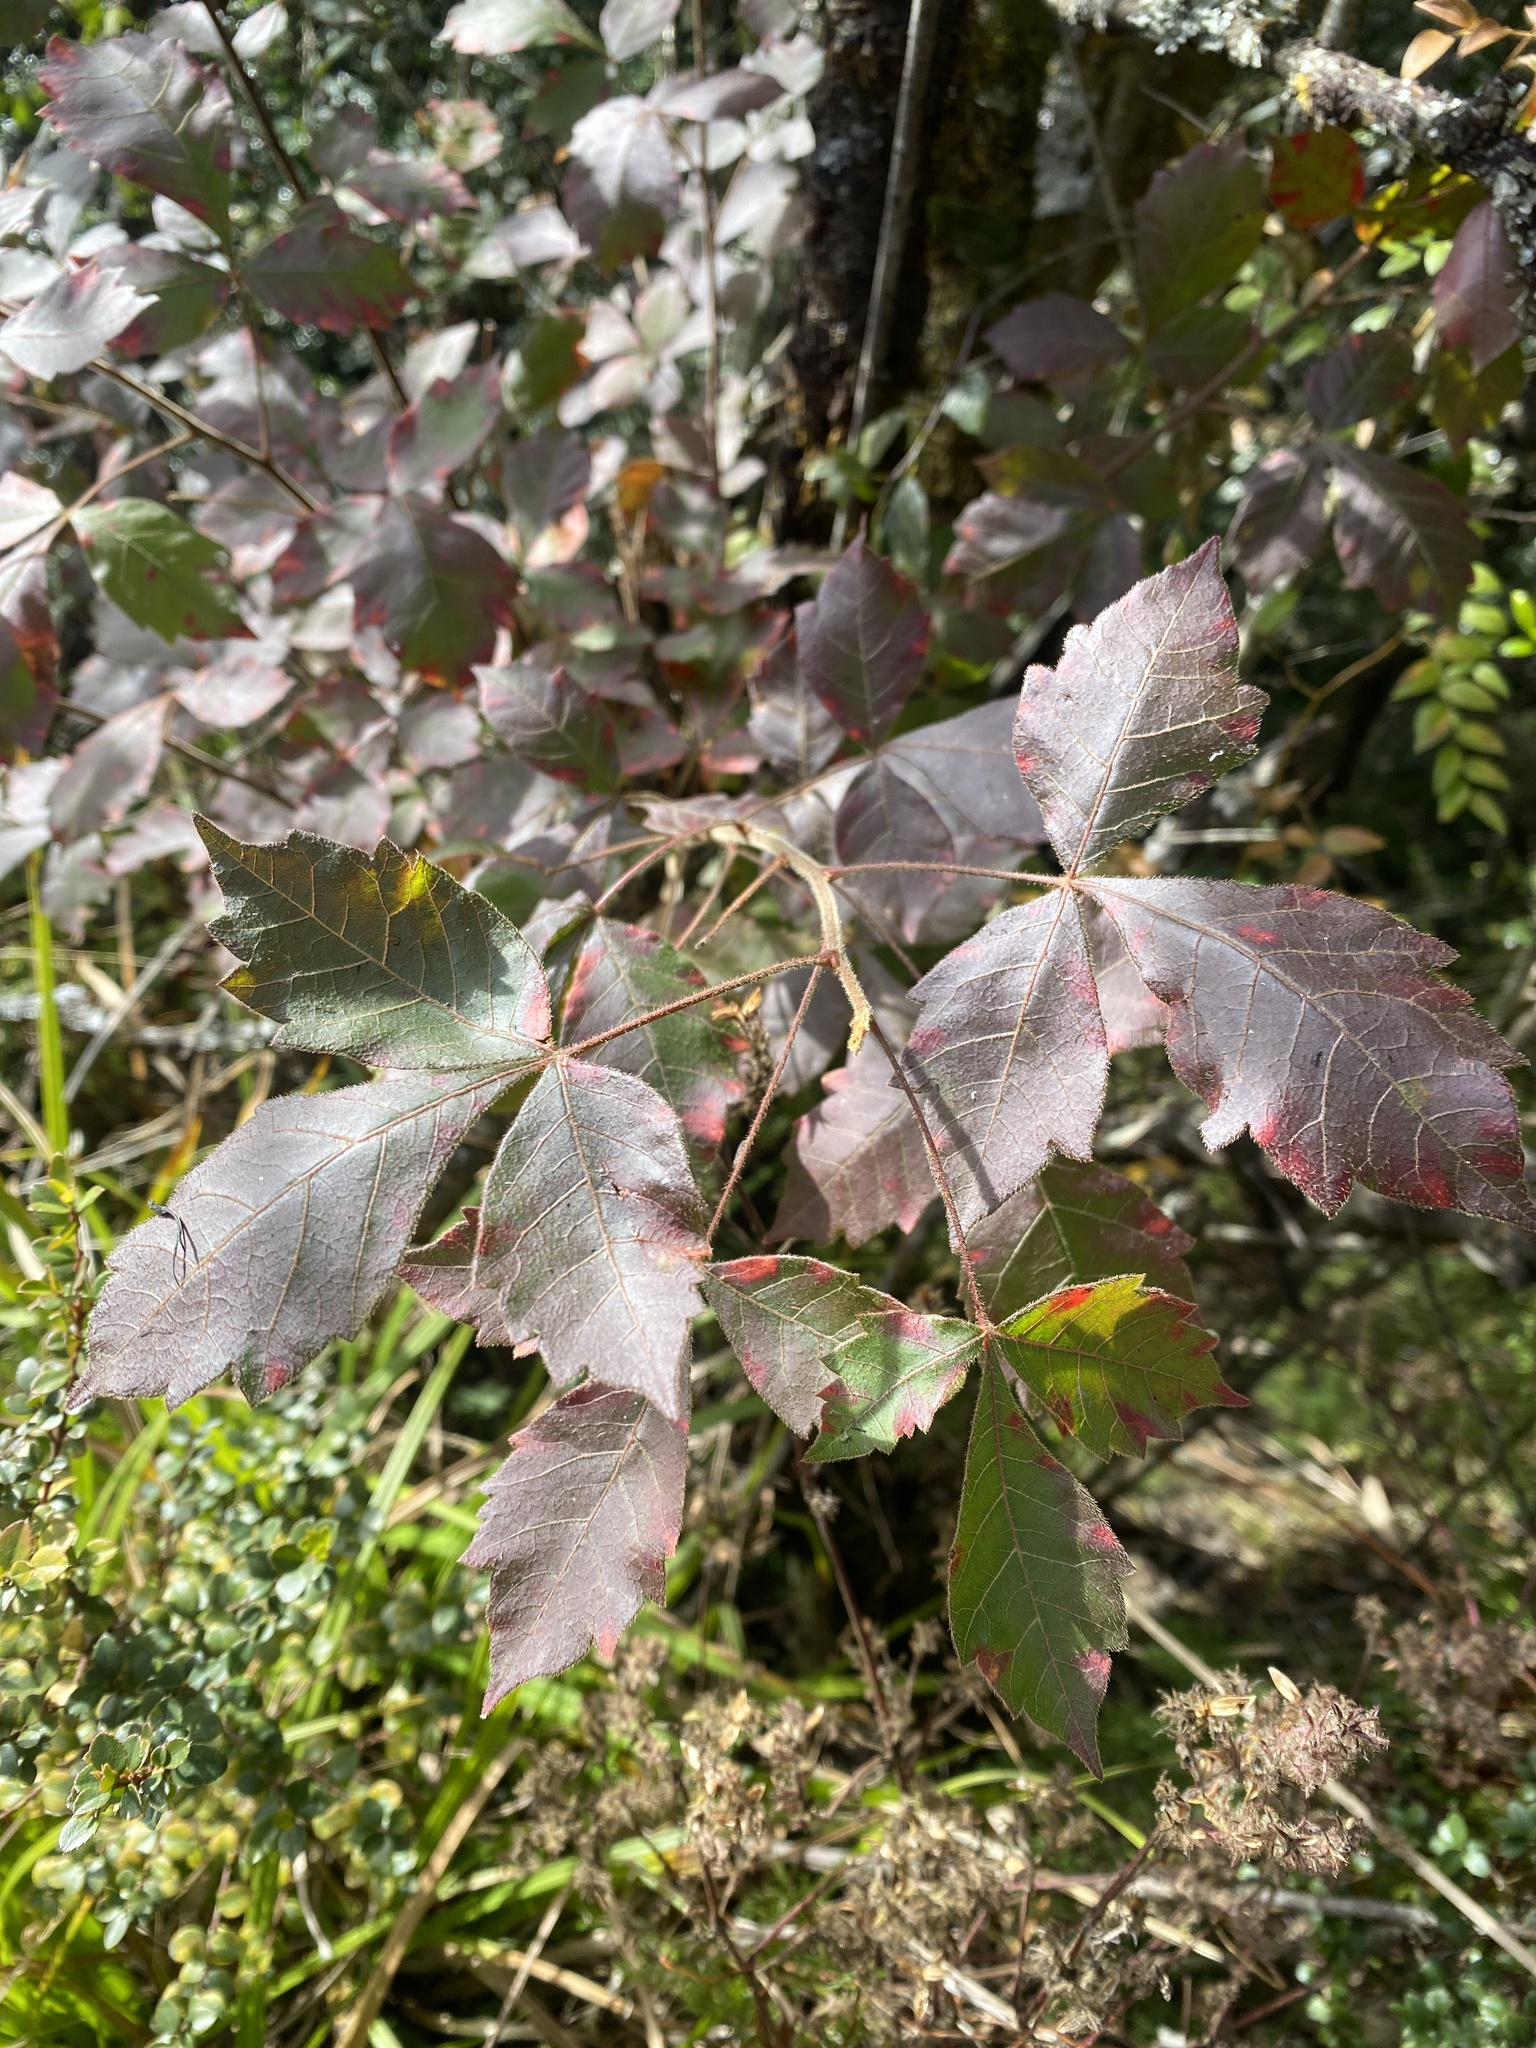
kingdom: Plantae
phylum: Tracheophyta
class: Magnoliopsida
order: Sapindales
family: Anacardiaceae
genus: Searsia
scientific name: Searsia dentata
